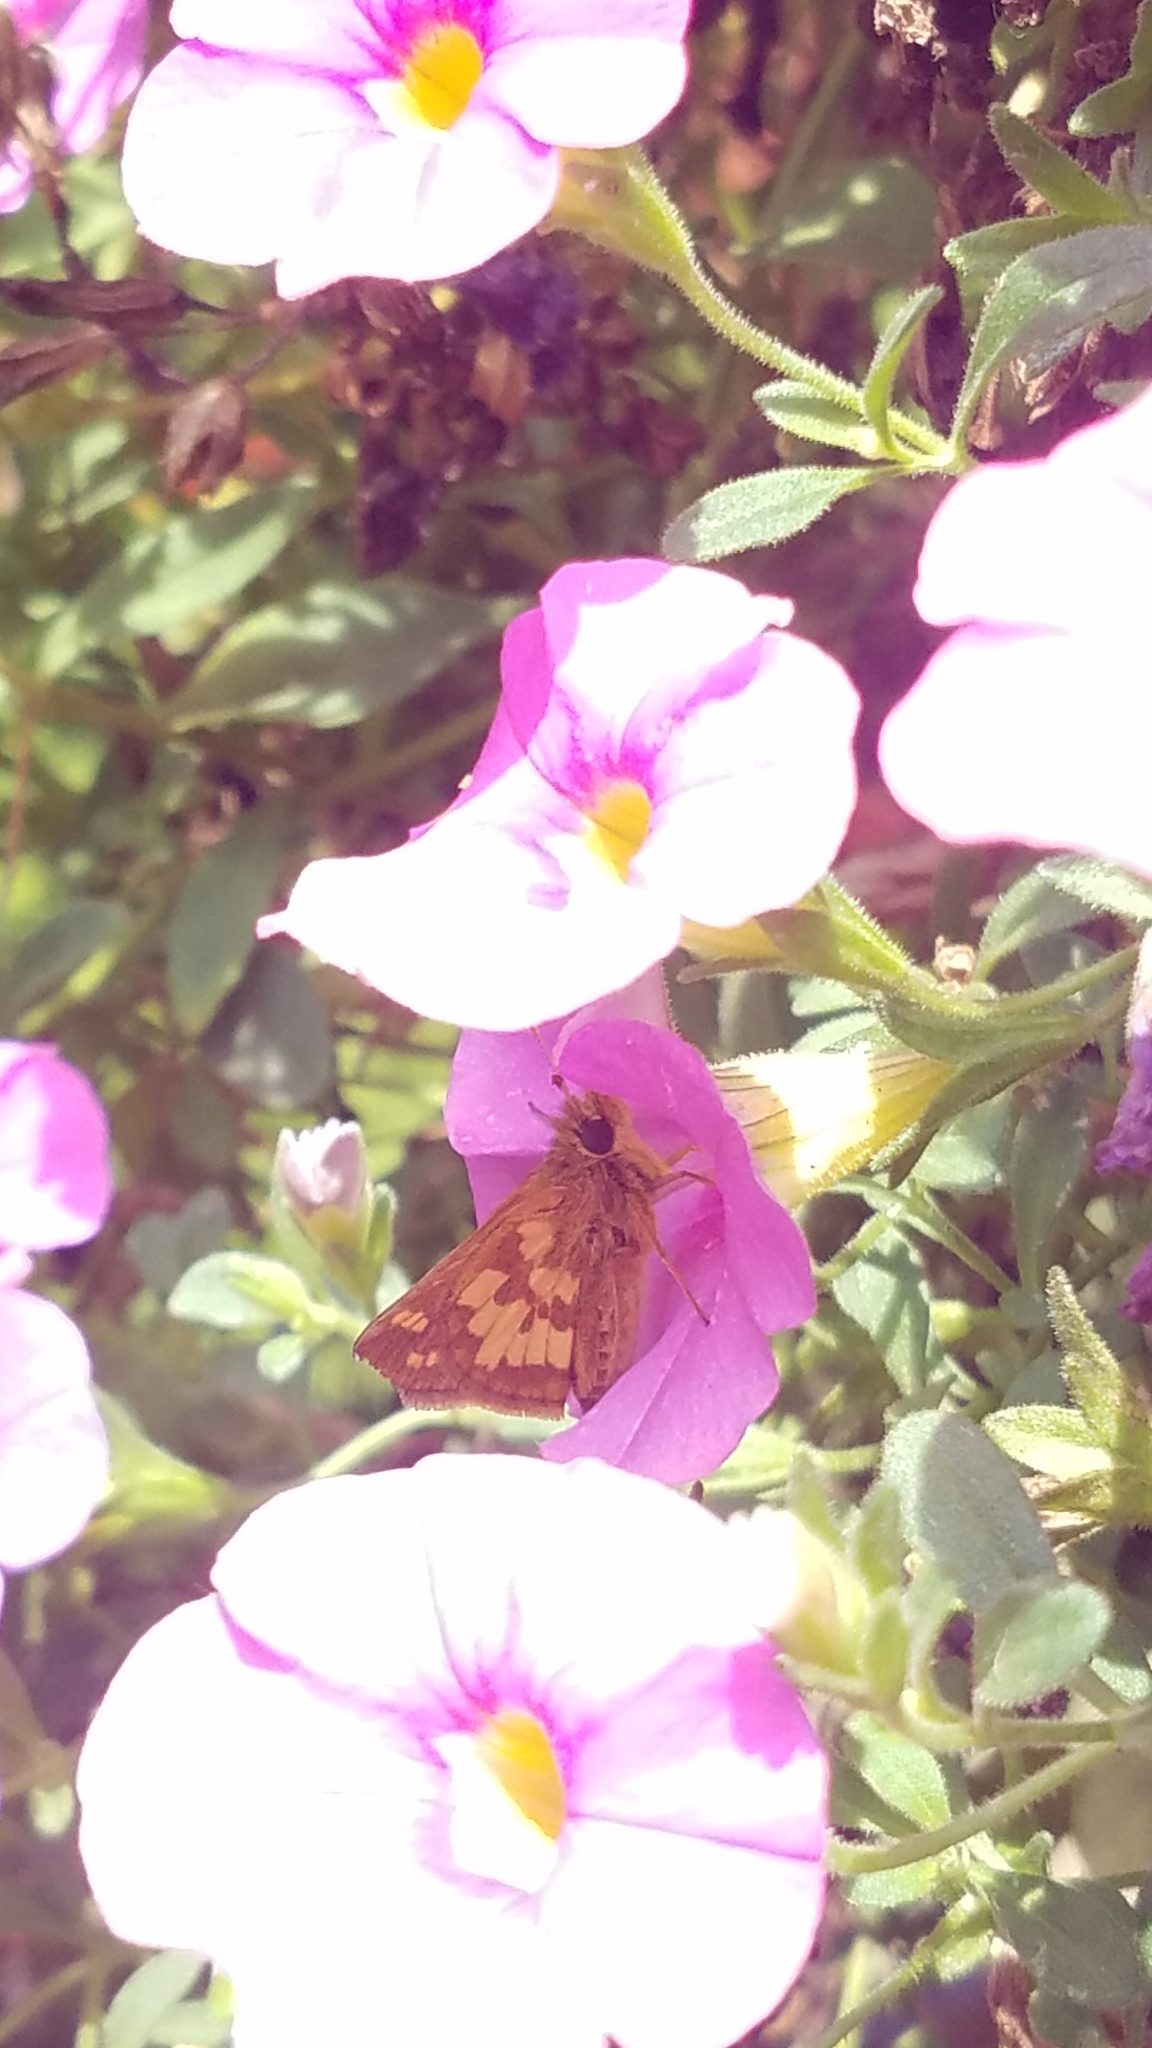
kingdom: Animalia
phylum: Arthropoda
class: Insecta
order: Lepidoptera
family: Hesperiidae
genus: Polites
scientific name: Polites coras
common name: Peck's skipper
